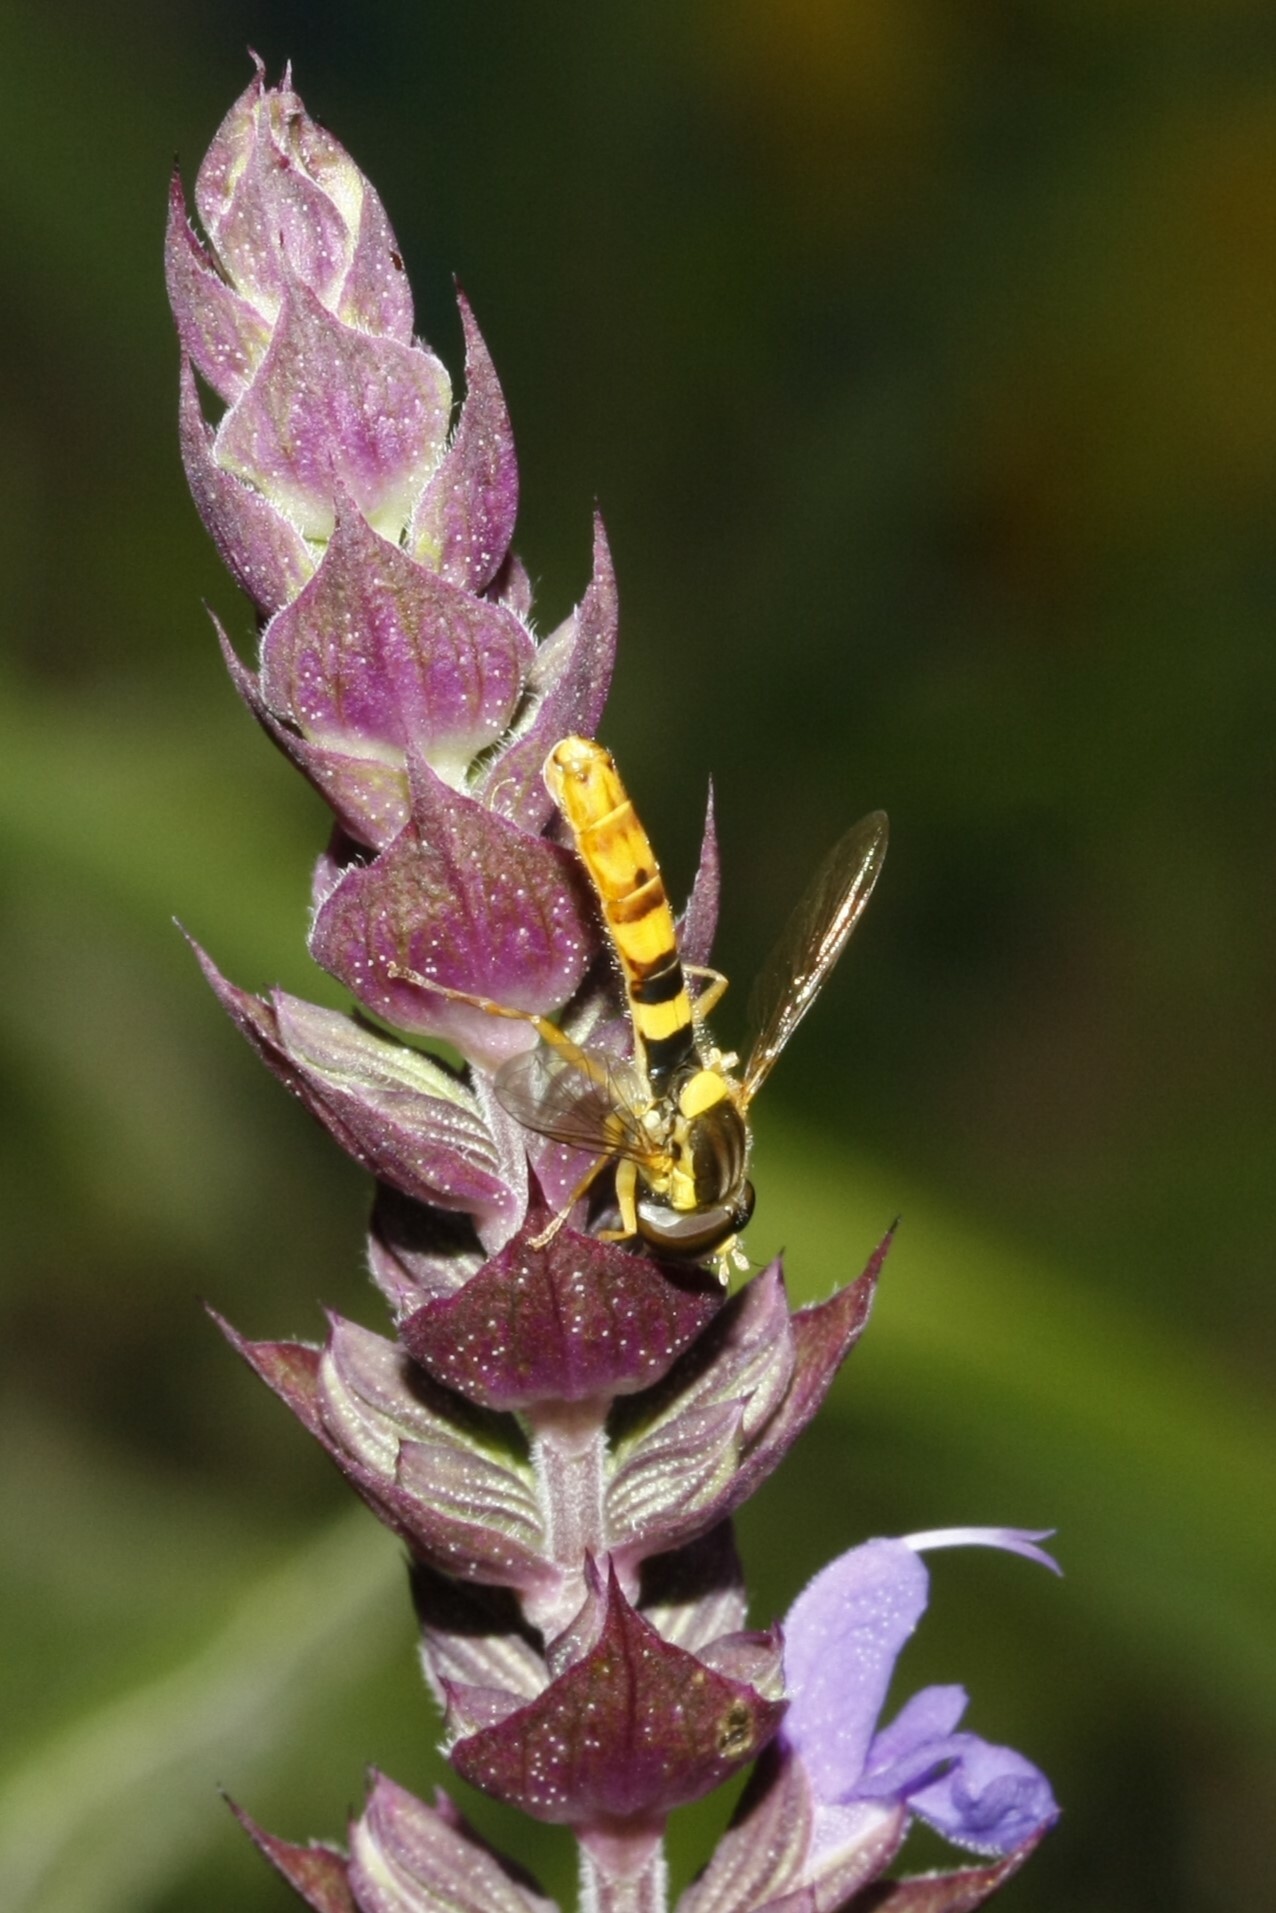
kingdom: Animalia
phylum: Arthropoda
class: Insecta
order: Diptera
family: Syrphidae
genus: Sphaerophoria
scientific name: Sphaerophoria scripta
